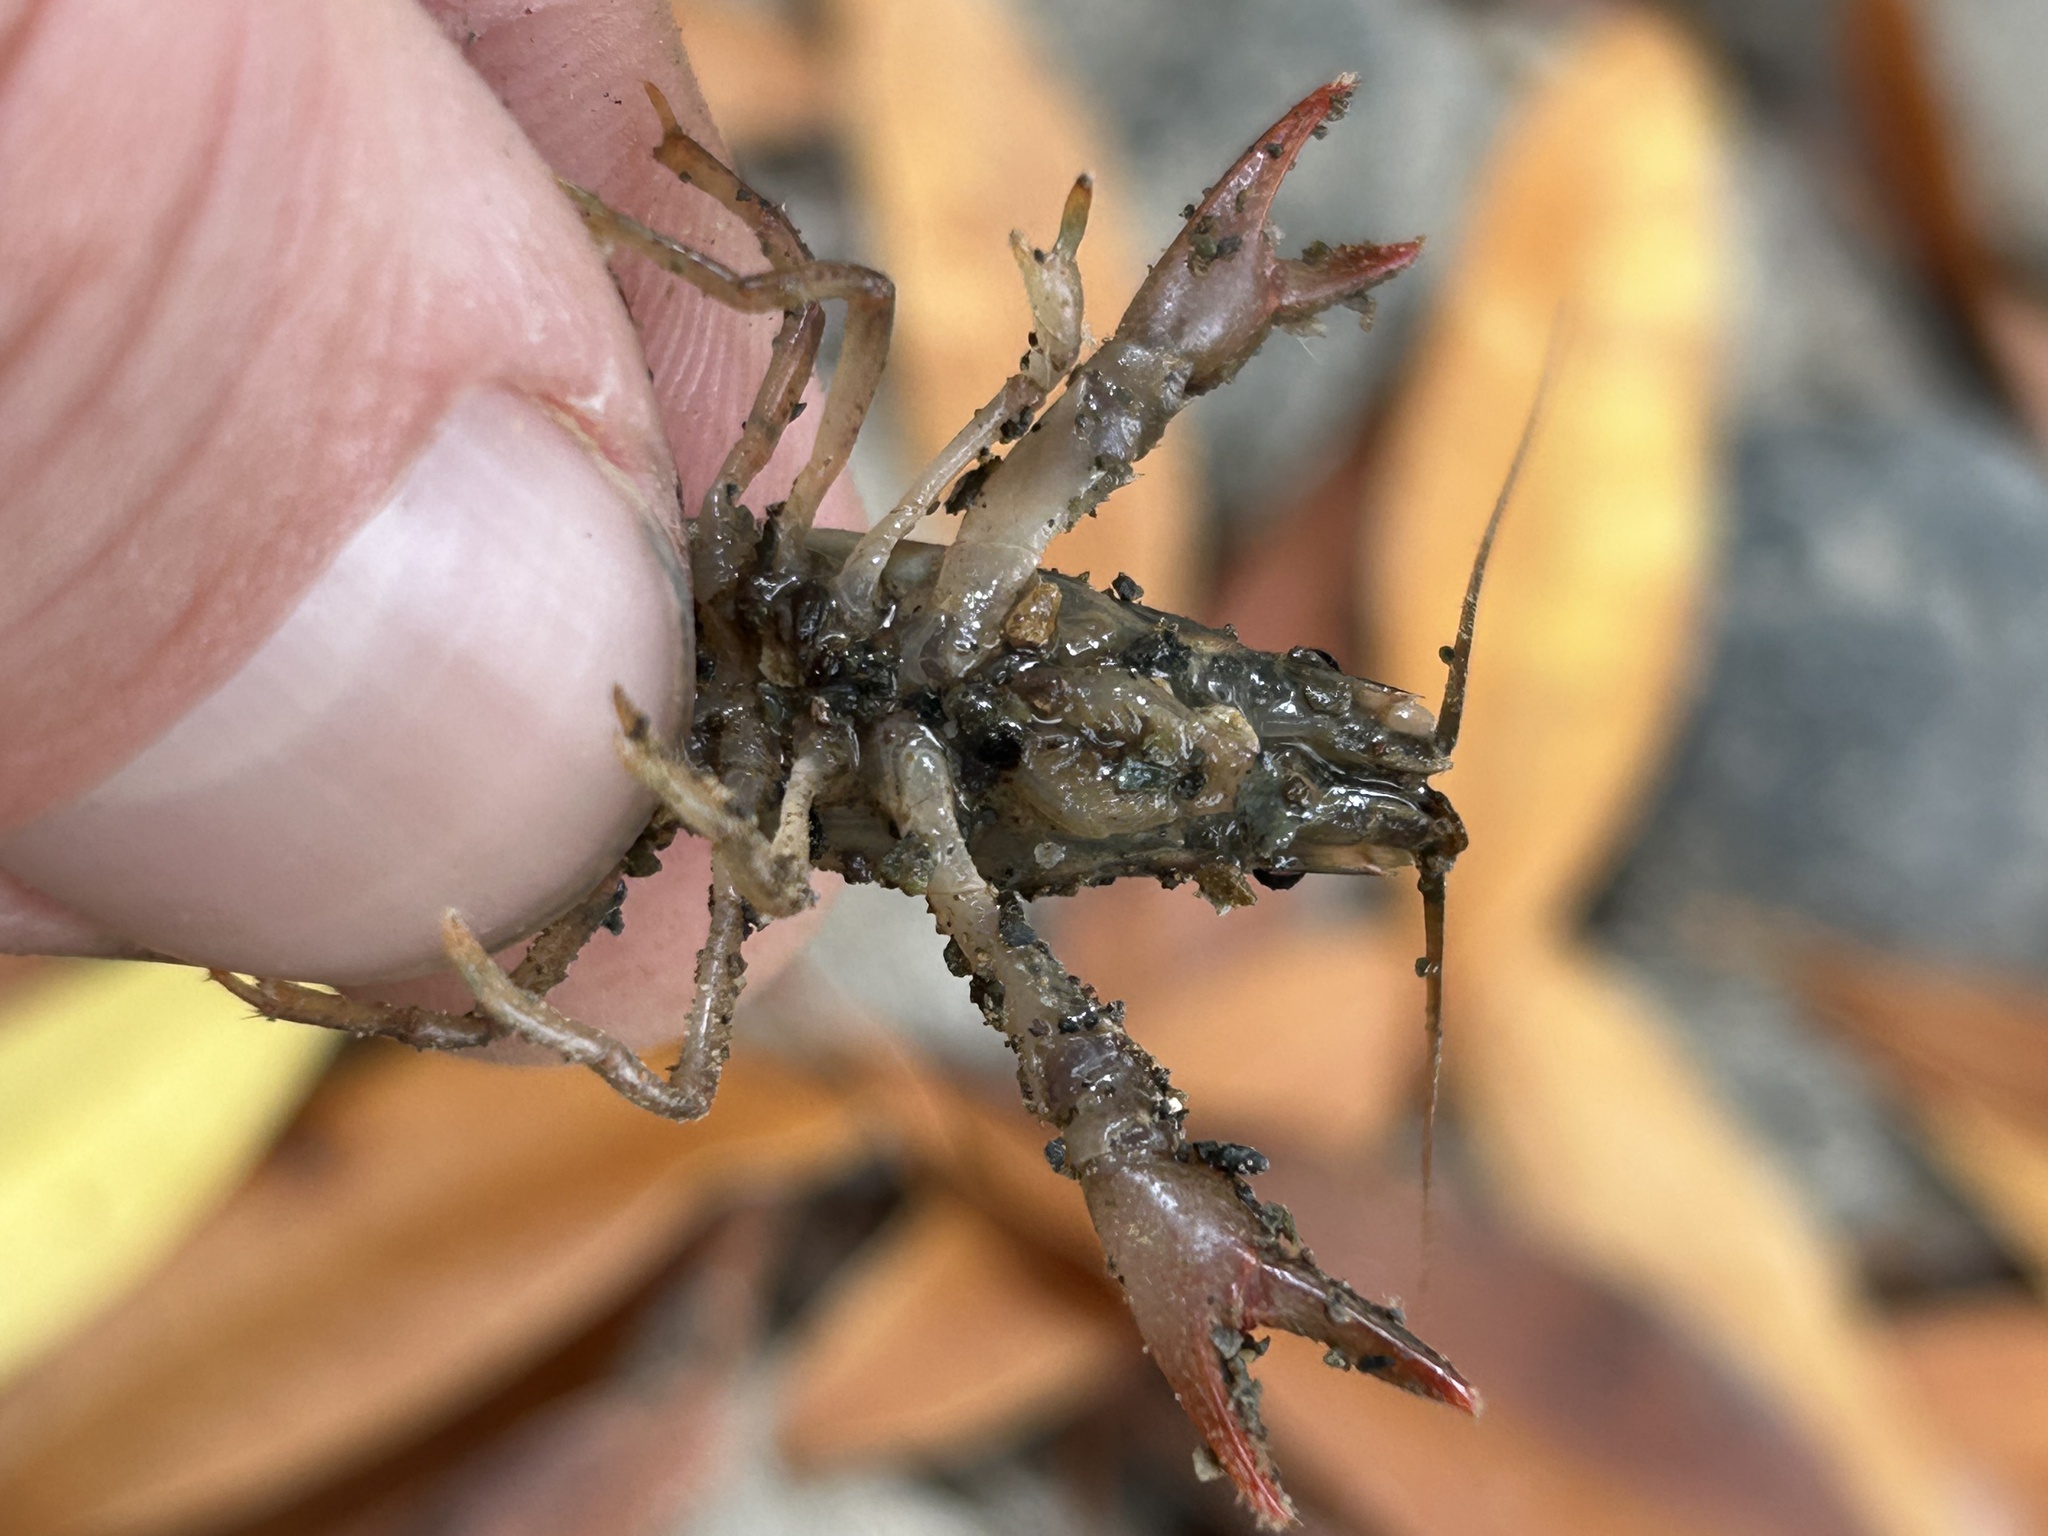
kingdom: Animalia
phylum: Arthropoda
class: Malacostraca
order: Decapoda
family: Cambaridae
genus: Faxonius
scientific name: Faxonius virilis
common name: Virile crayfish
